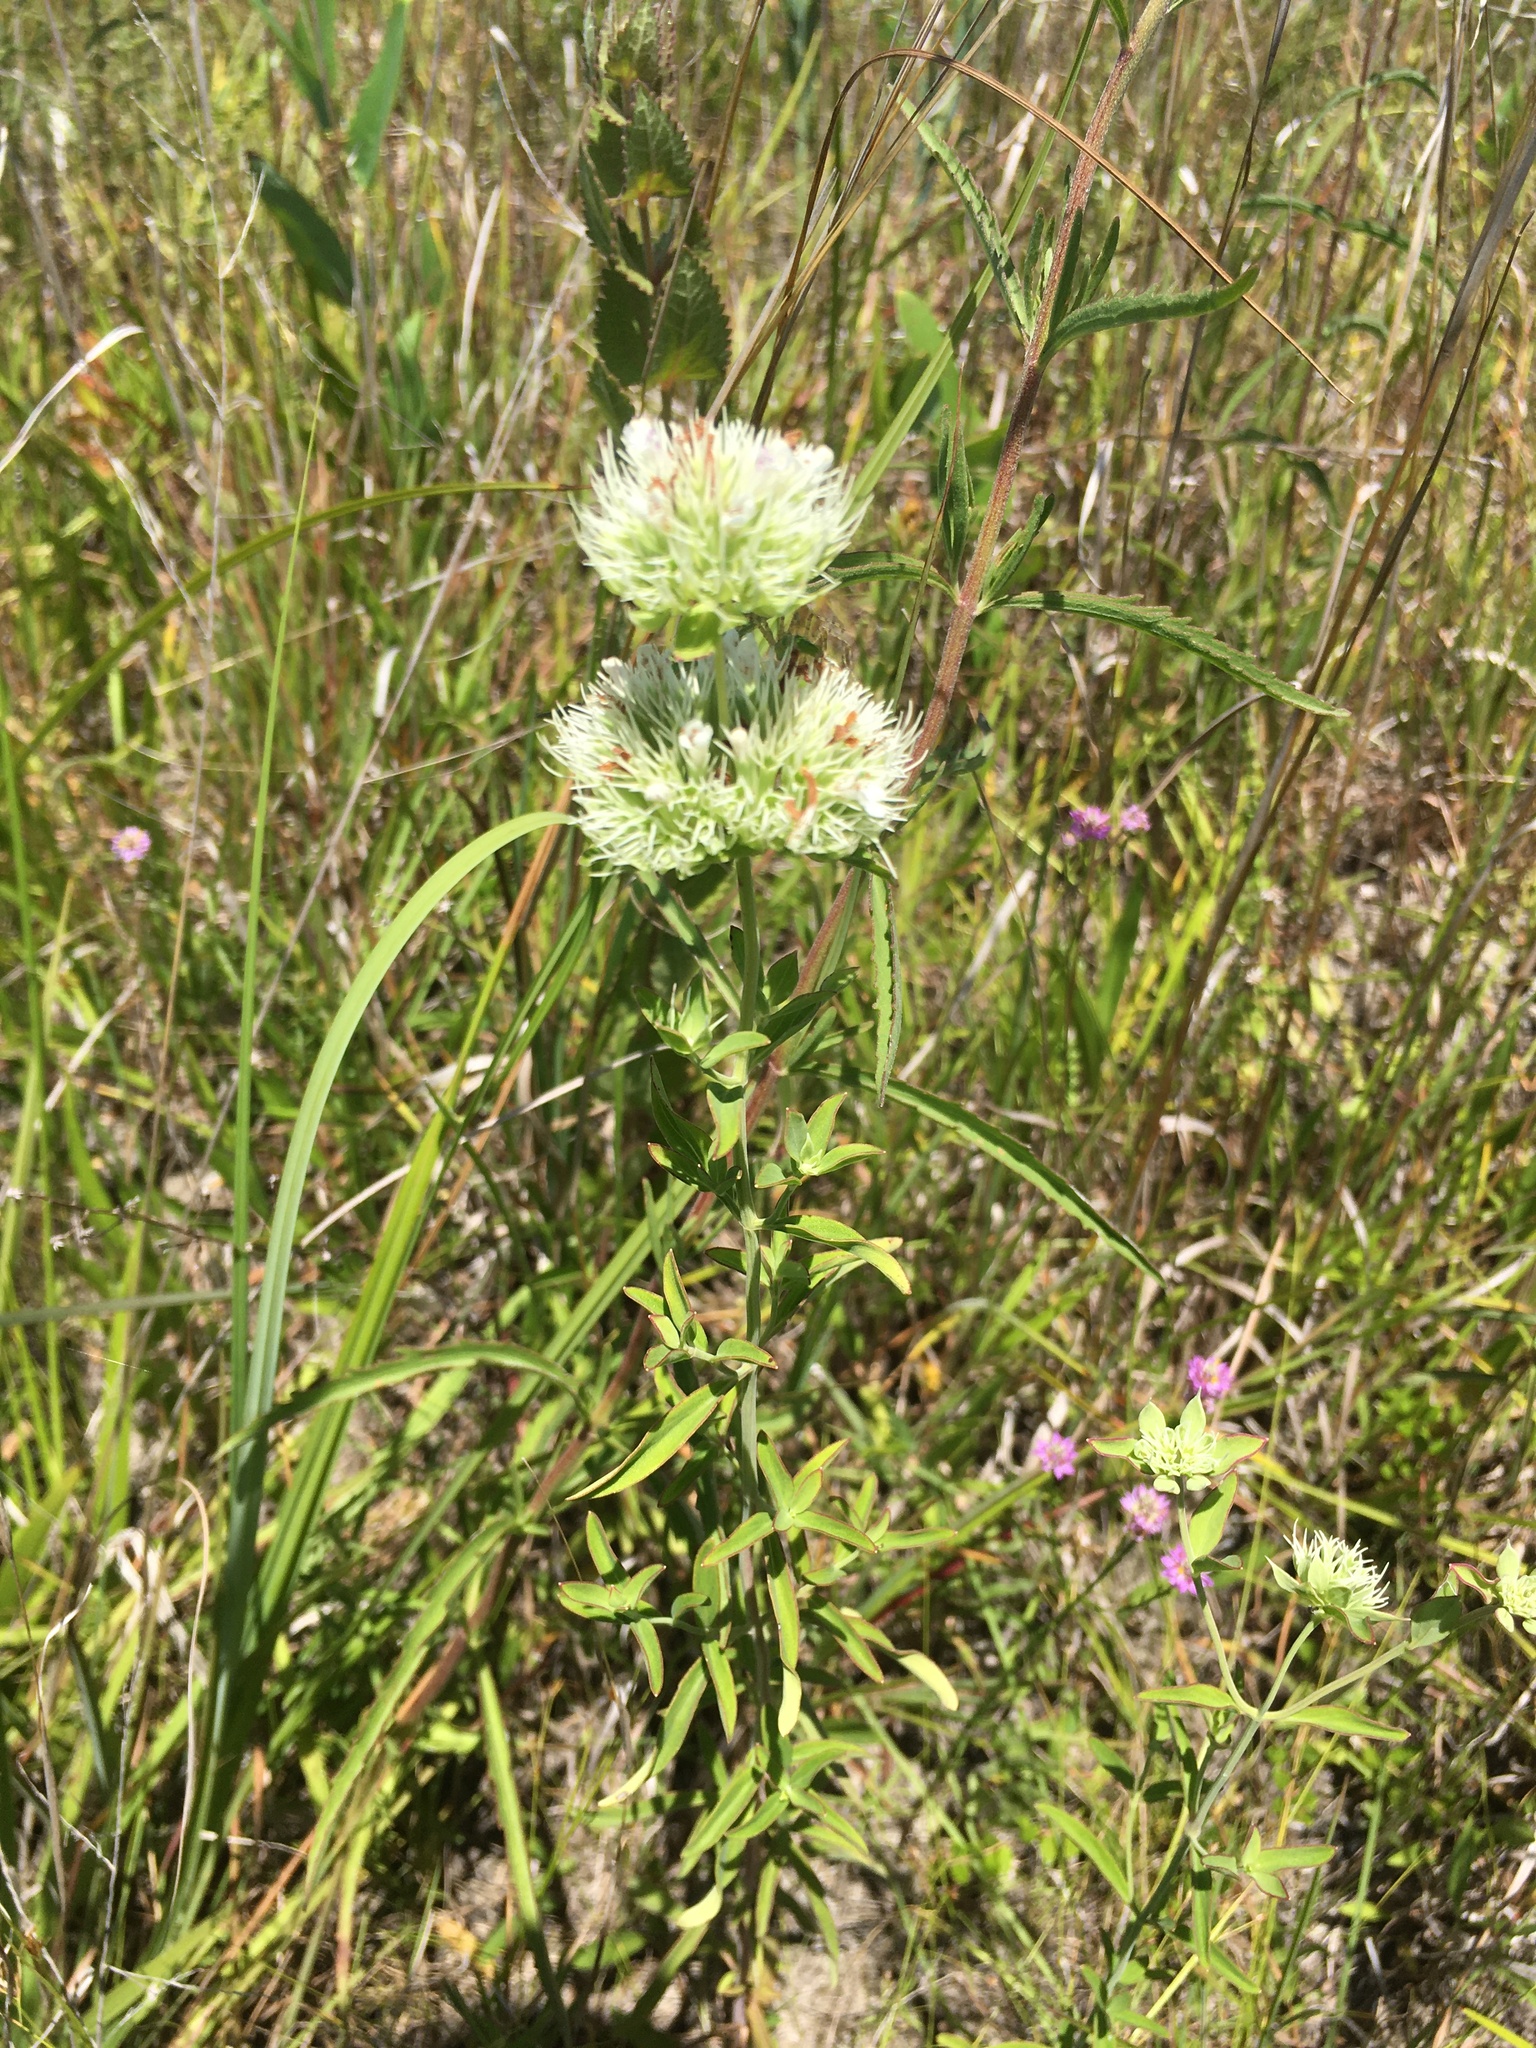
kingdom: Plantae
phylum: Tracheophyta
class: Magnoliopsida
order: Lamiales
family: Lamiaceae
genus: Pycnanthemum
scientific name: Pycnanthemum flexuosum
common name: Appalachian mountain-mint
